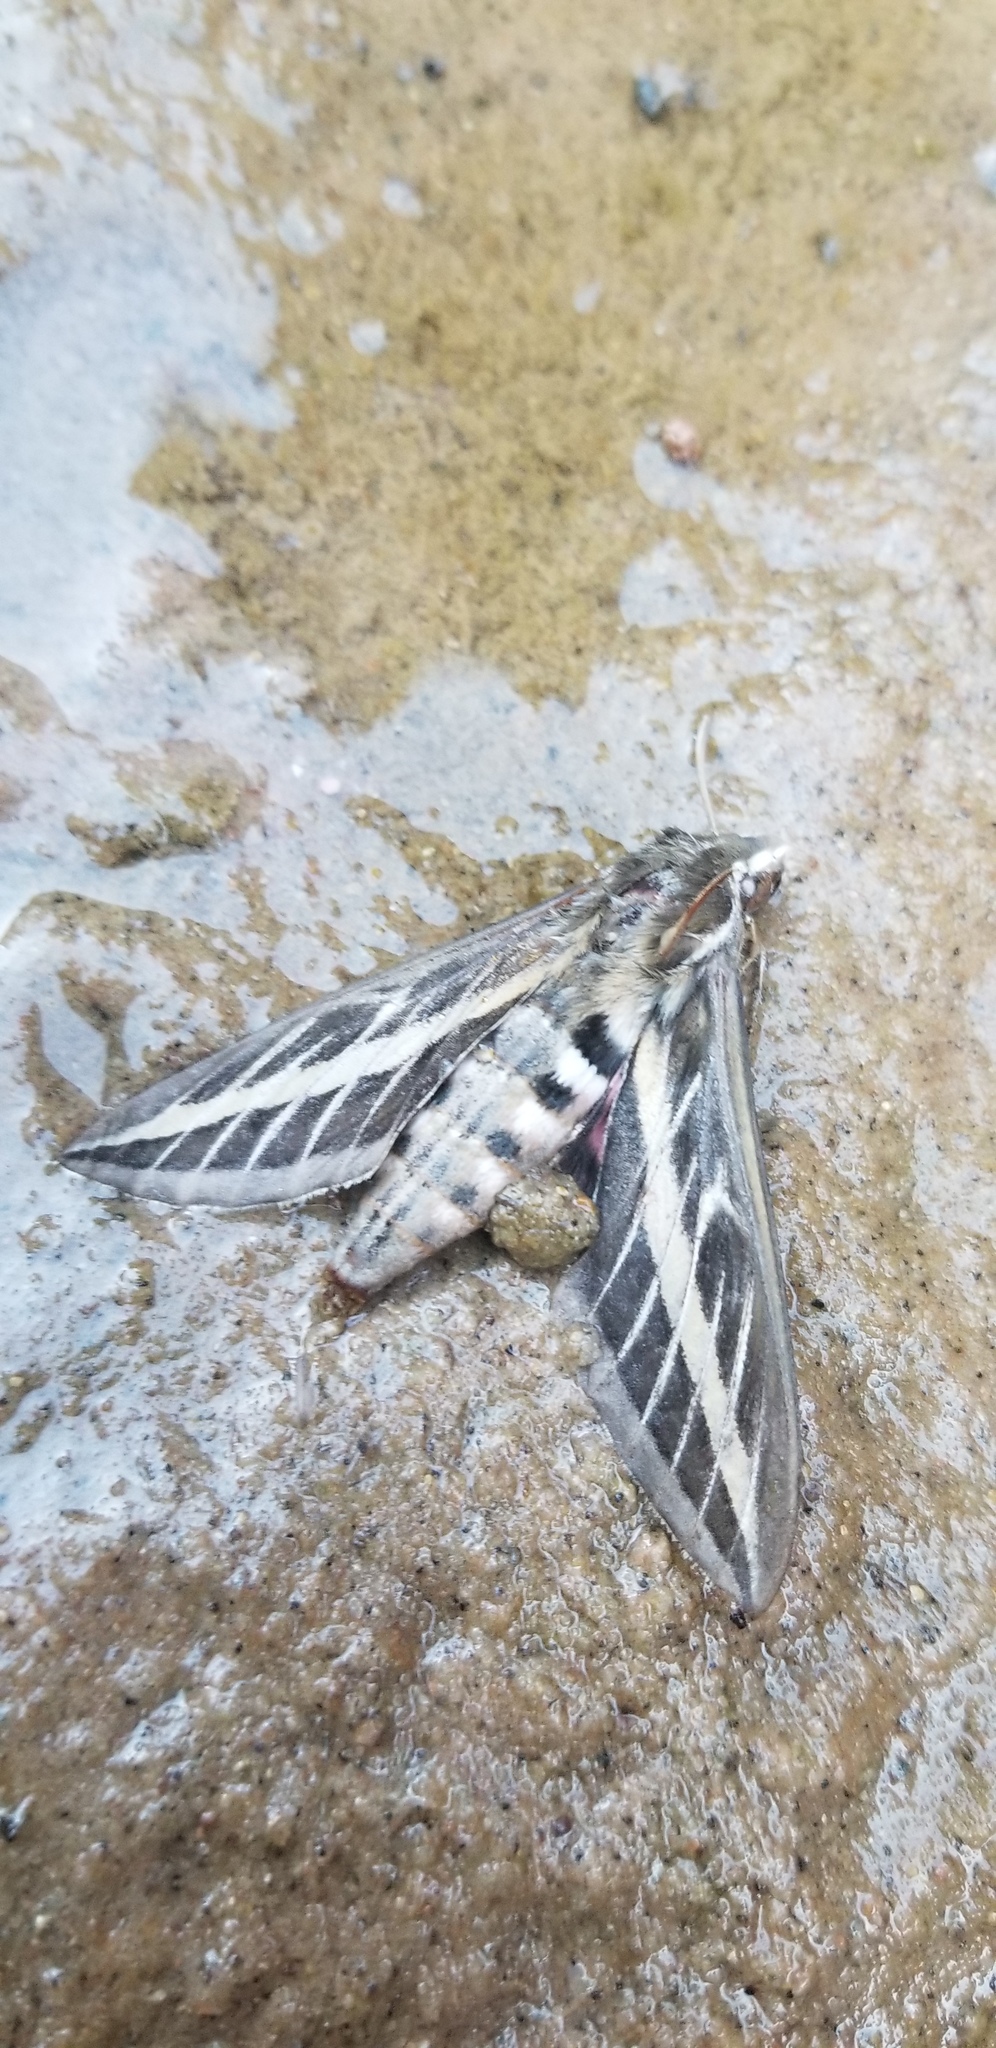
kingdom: Animalia
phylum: Arthropoda
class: Insecta
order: Lepidoptera
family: Sphingidae
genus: Hyles
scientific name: Hyles lineata
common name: White-lined sphinx
